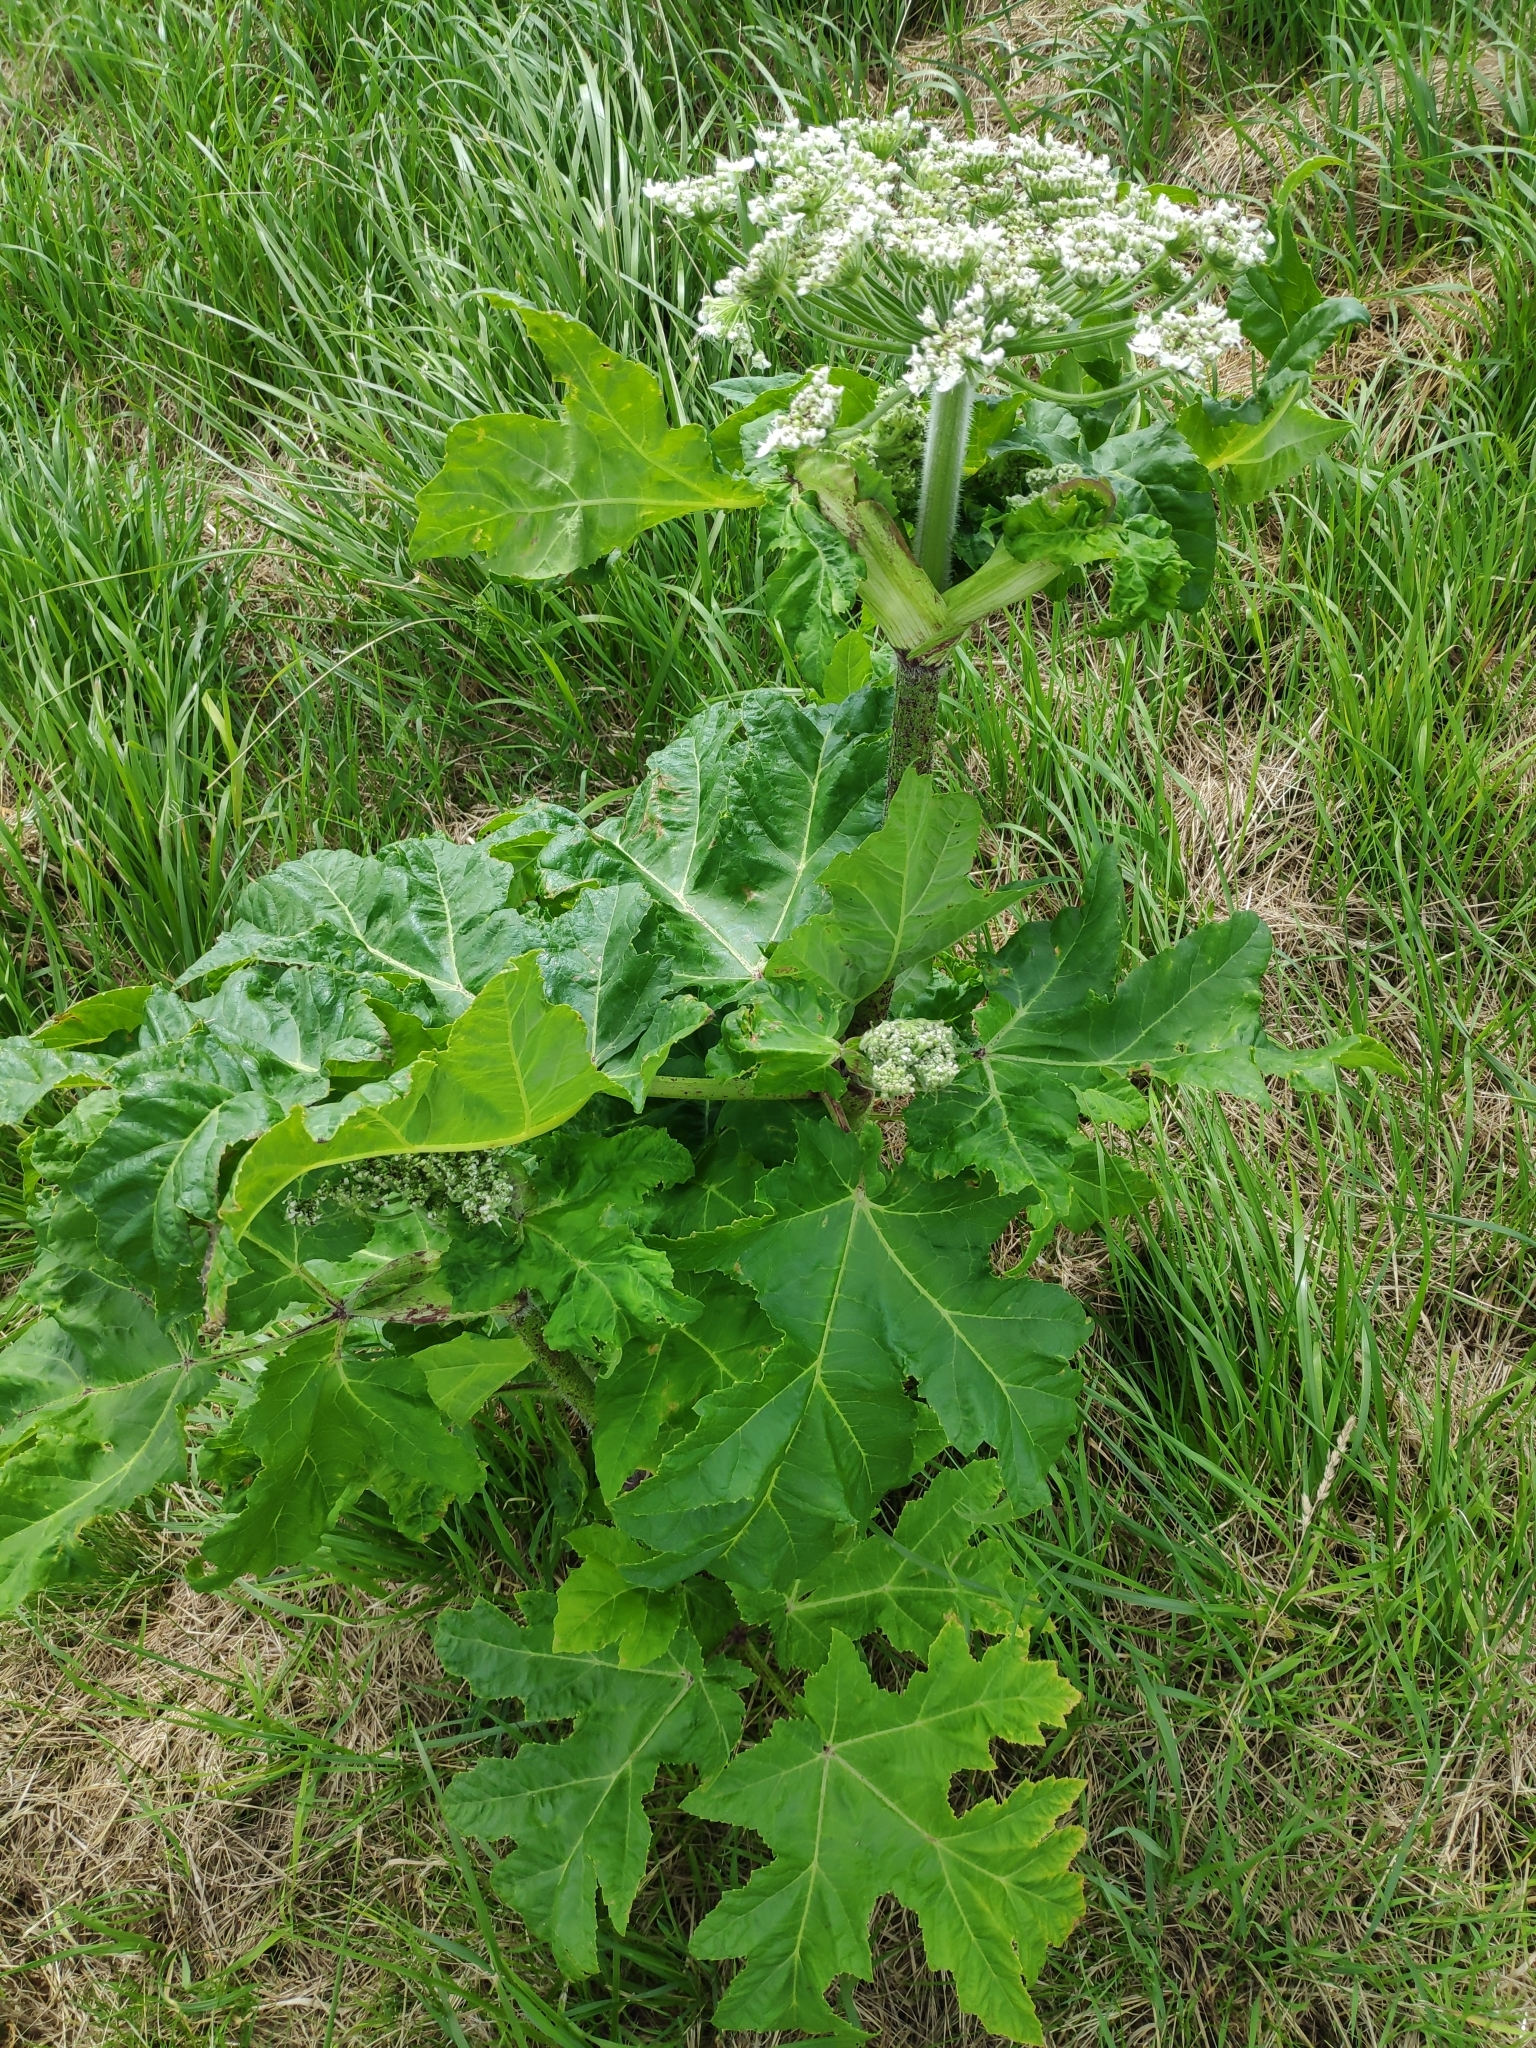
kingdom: Plantae
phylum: Tracheophyta
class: Magnoliopsida
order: Apiales
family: Apiaceae
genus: Heracleum
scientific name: Heracleum mantegazzianum
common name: Giant hogweed
